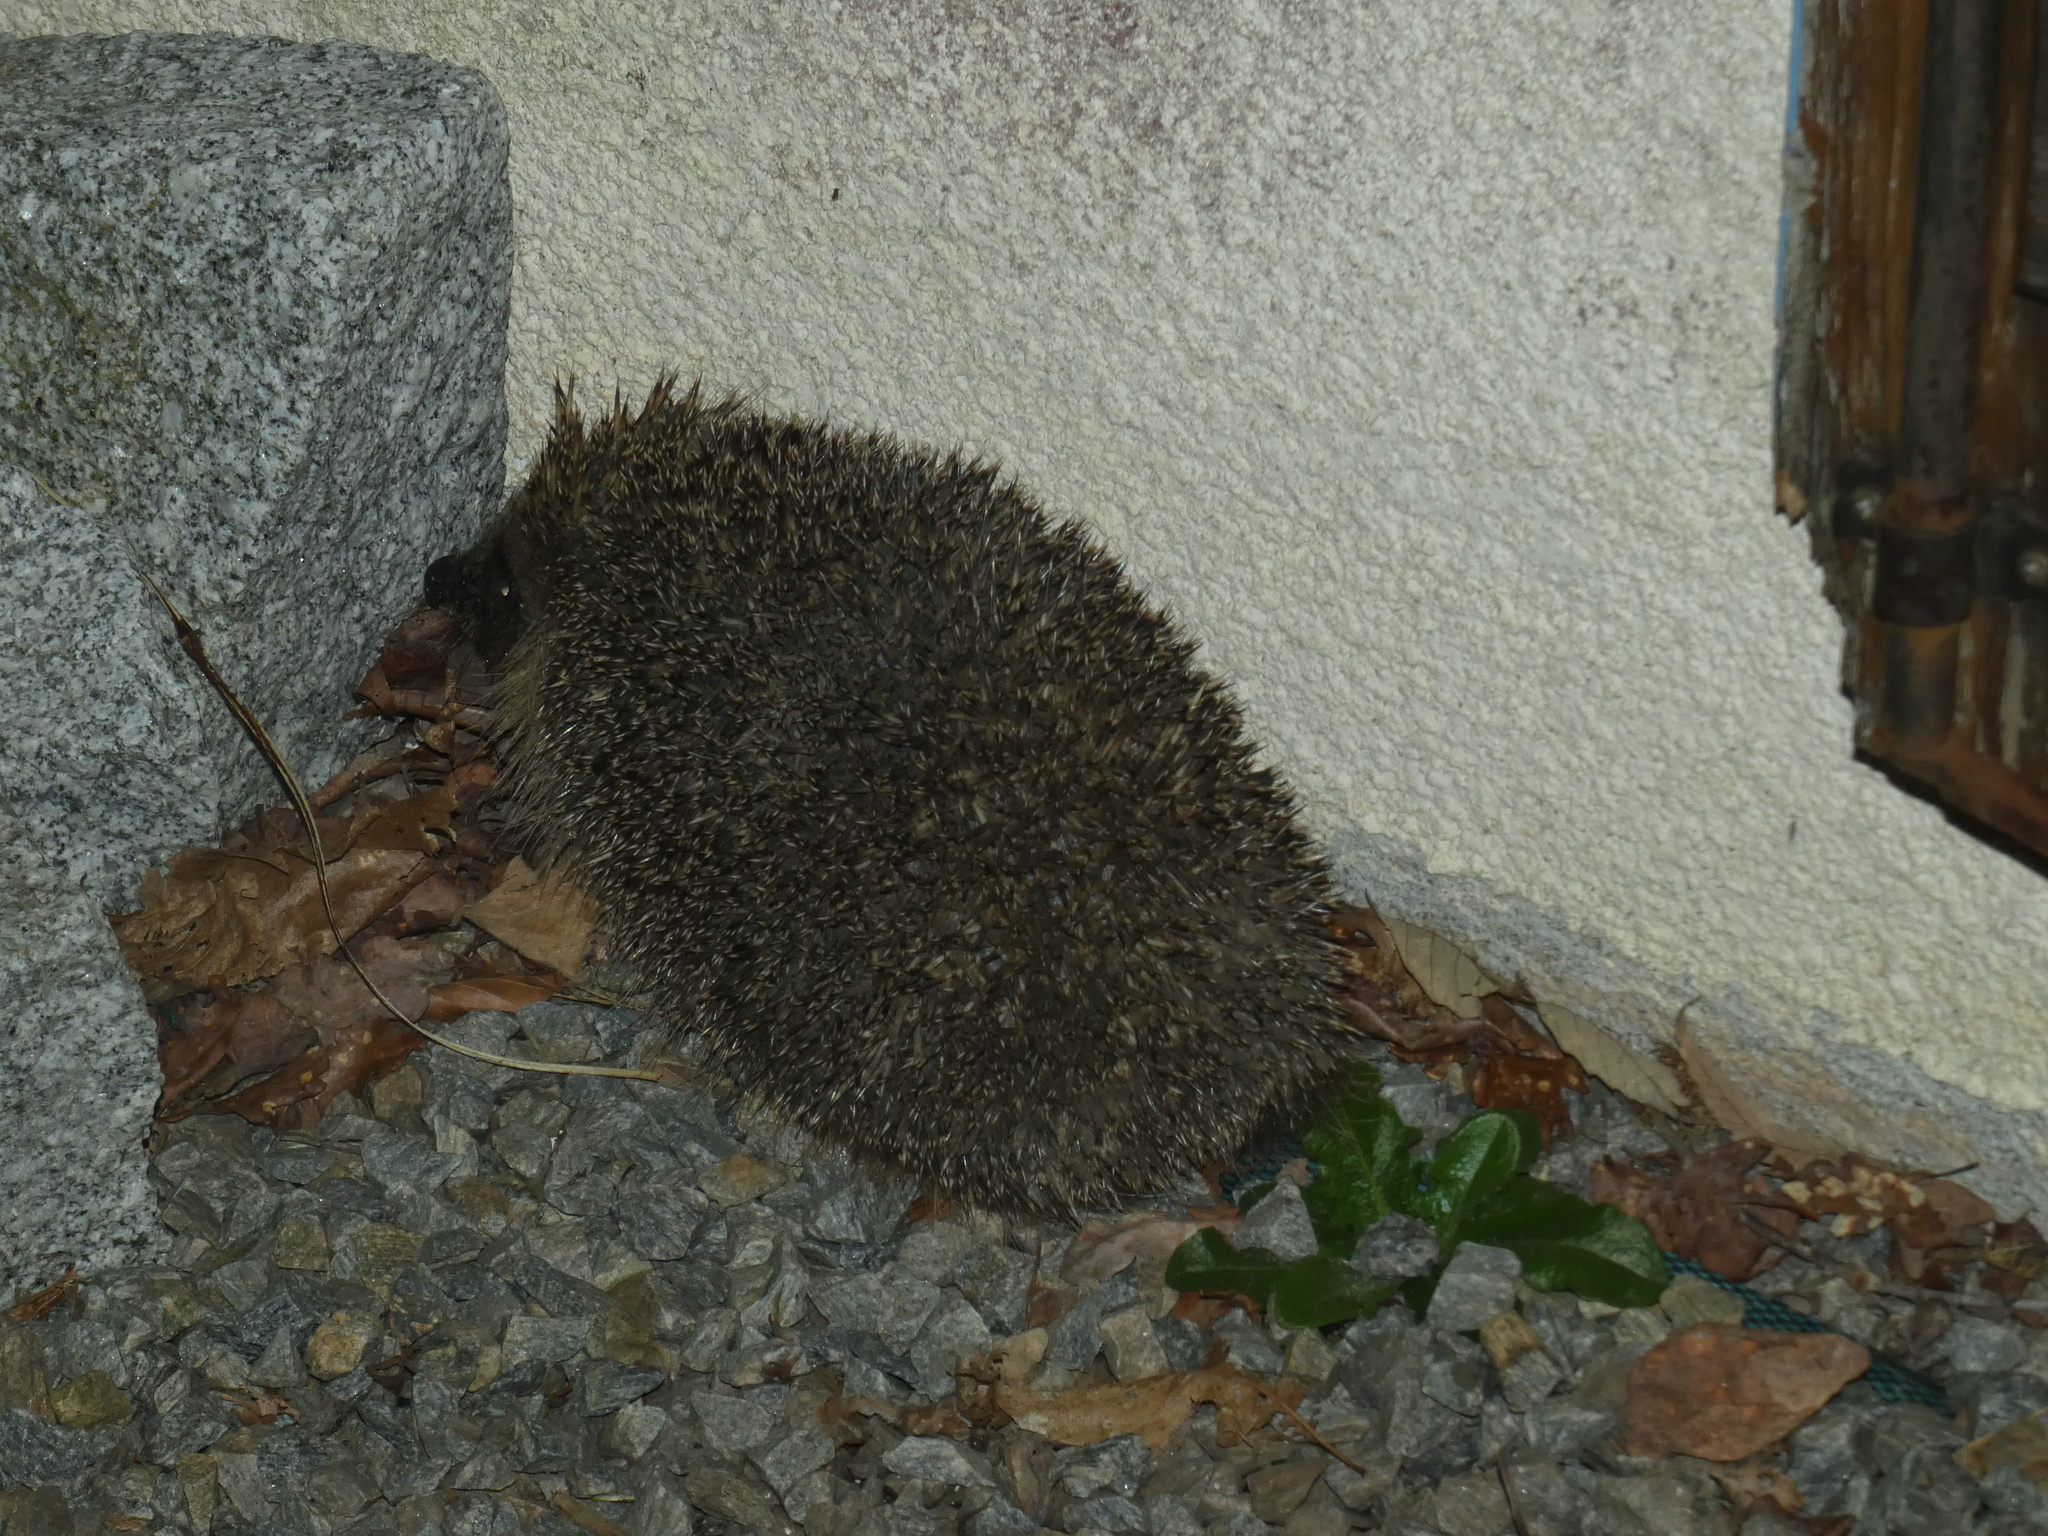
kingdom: Animalia
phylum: Chordata
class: Mammalia
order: Erinaceomorpha
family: Erinaceidae
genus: Erinaceus
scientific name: Erinaceus europaeus
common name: West european hedgehog
